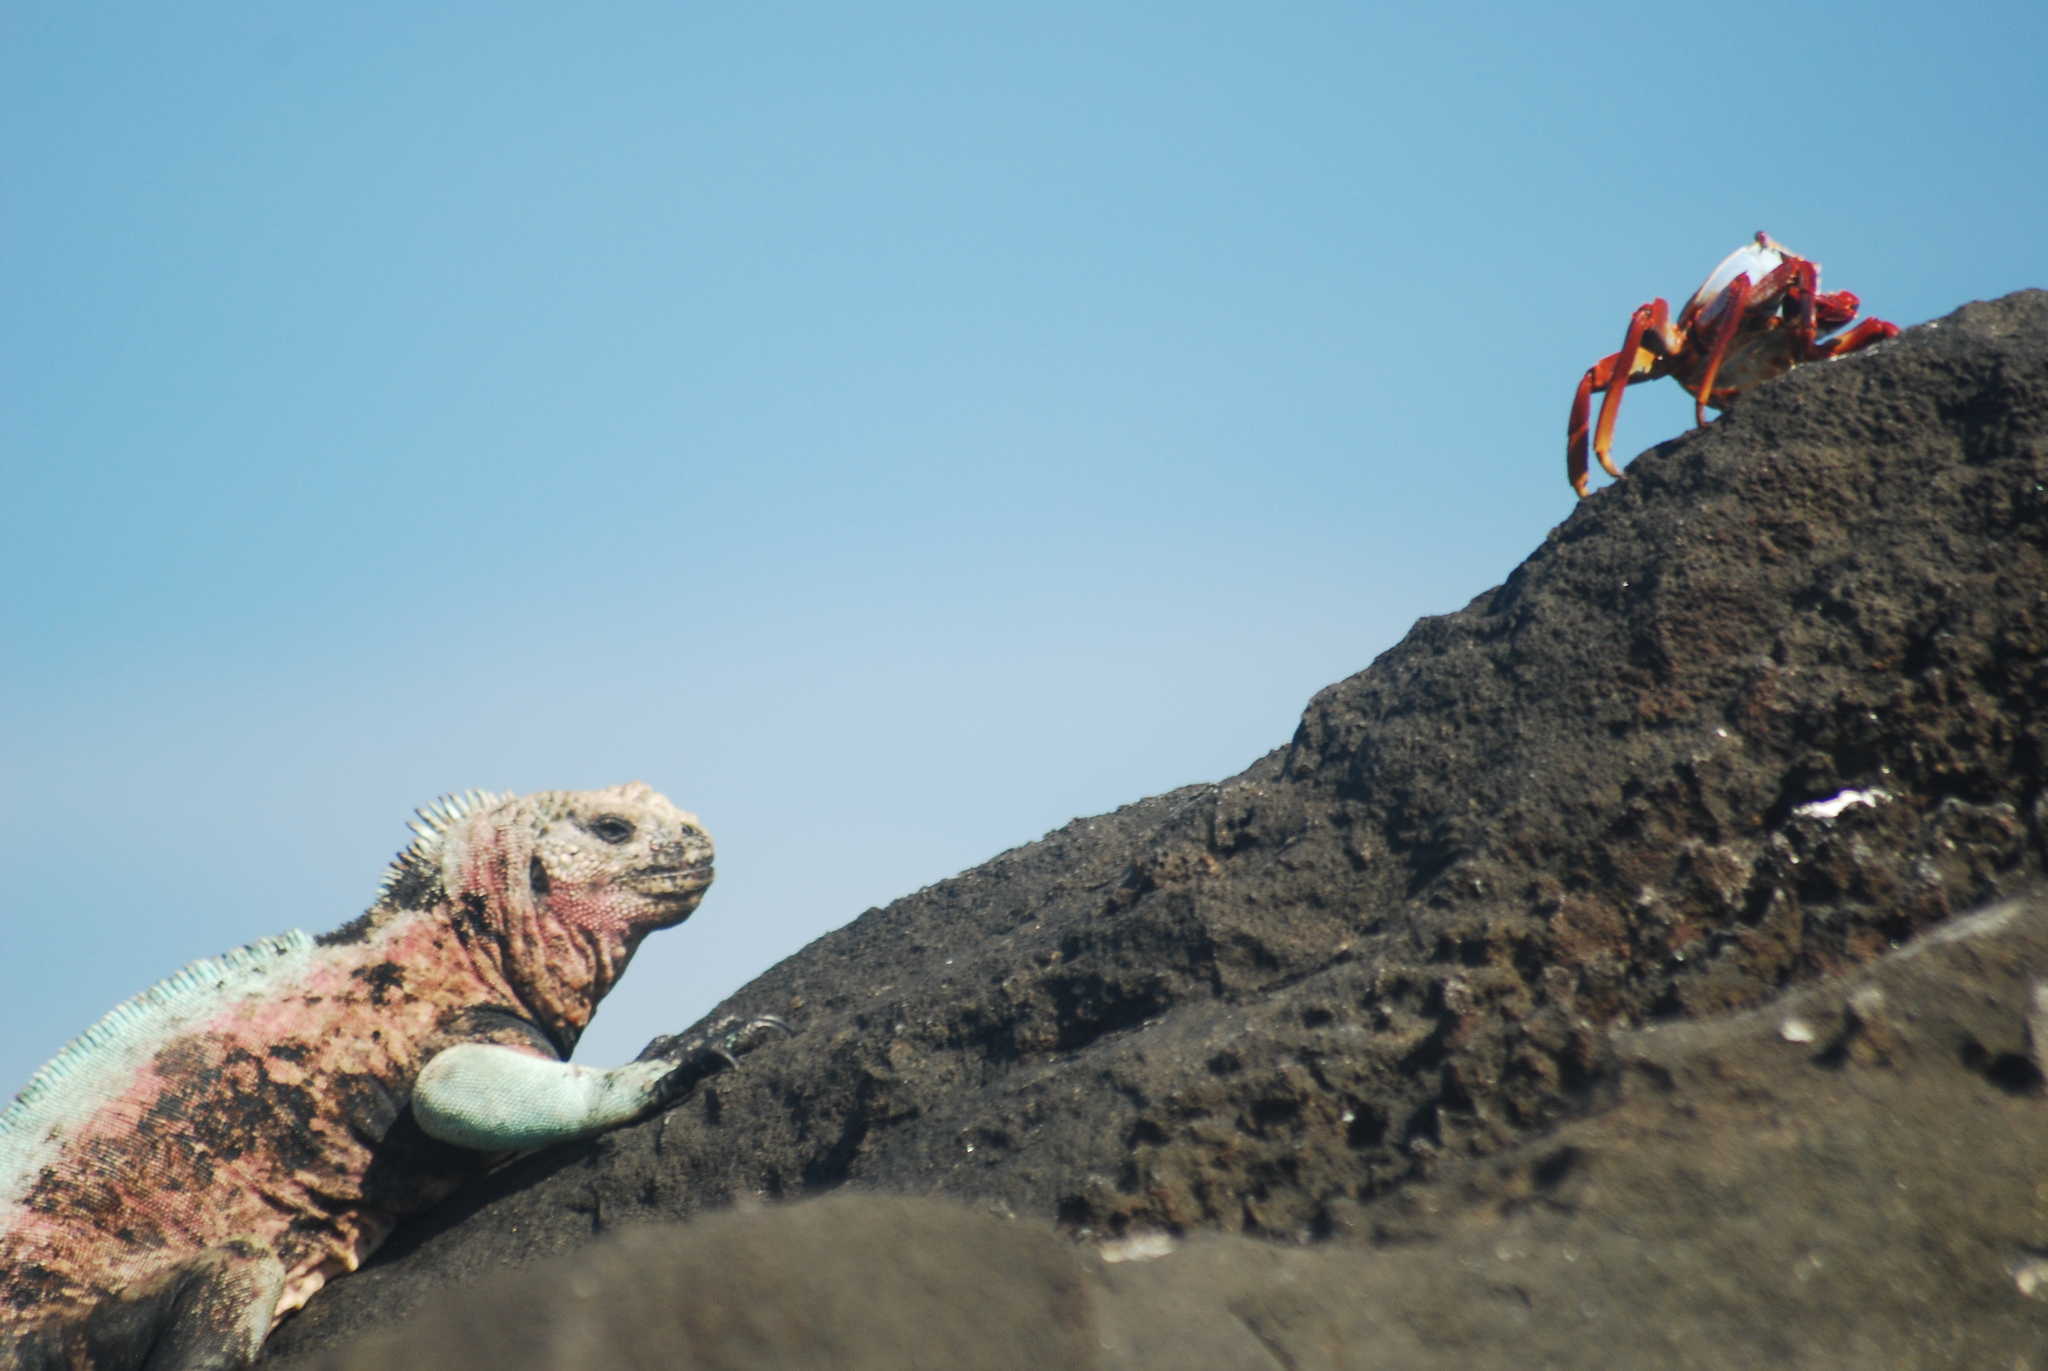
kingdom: Animalia
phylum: Arthropoda
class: Malacostraca
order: Decapoda
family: Grapsidae
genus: Grapsus
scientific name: Grapsus grapsus
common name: Sally lightfoot
